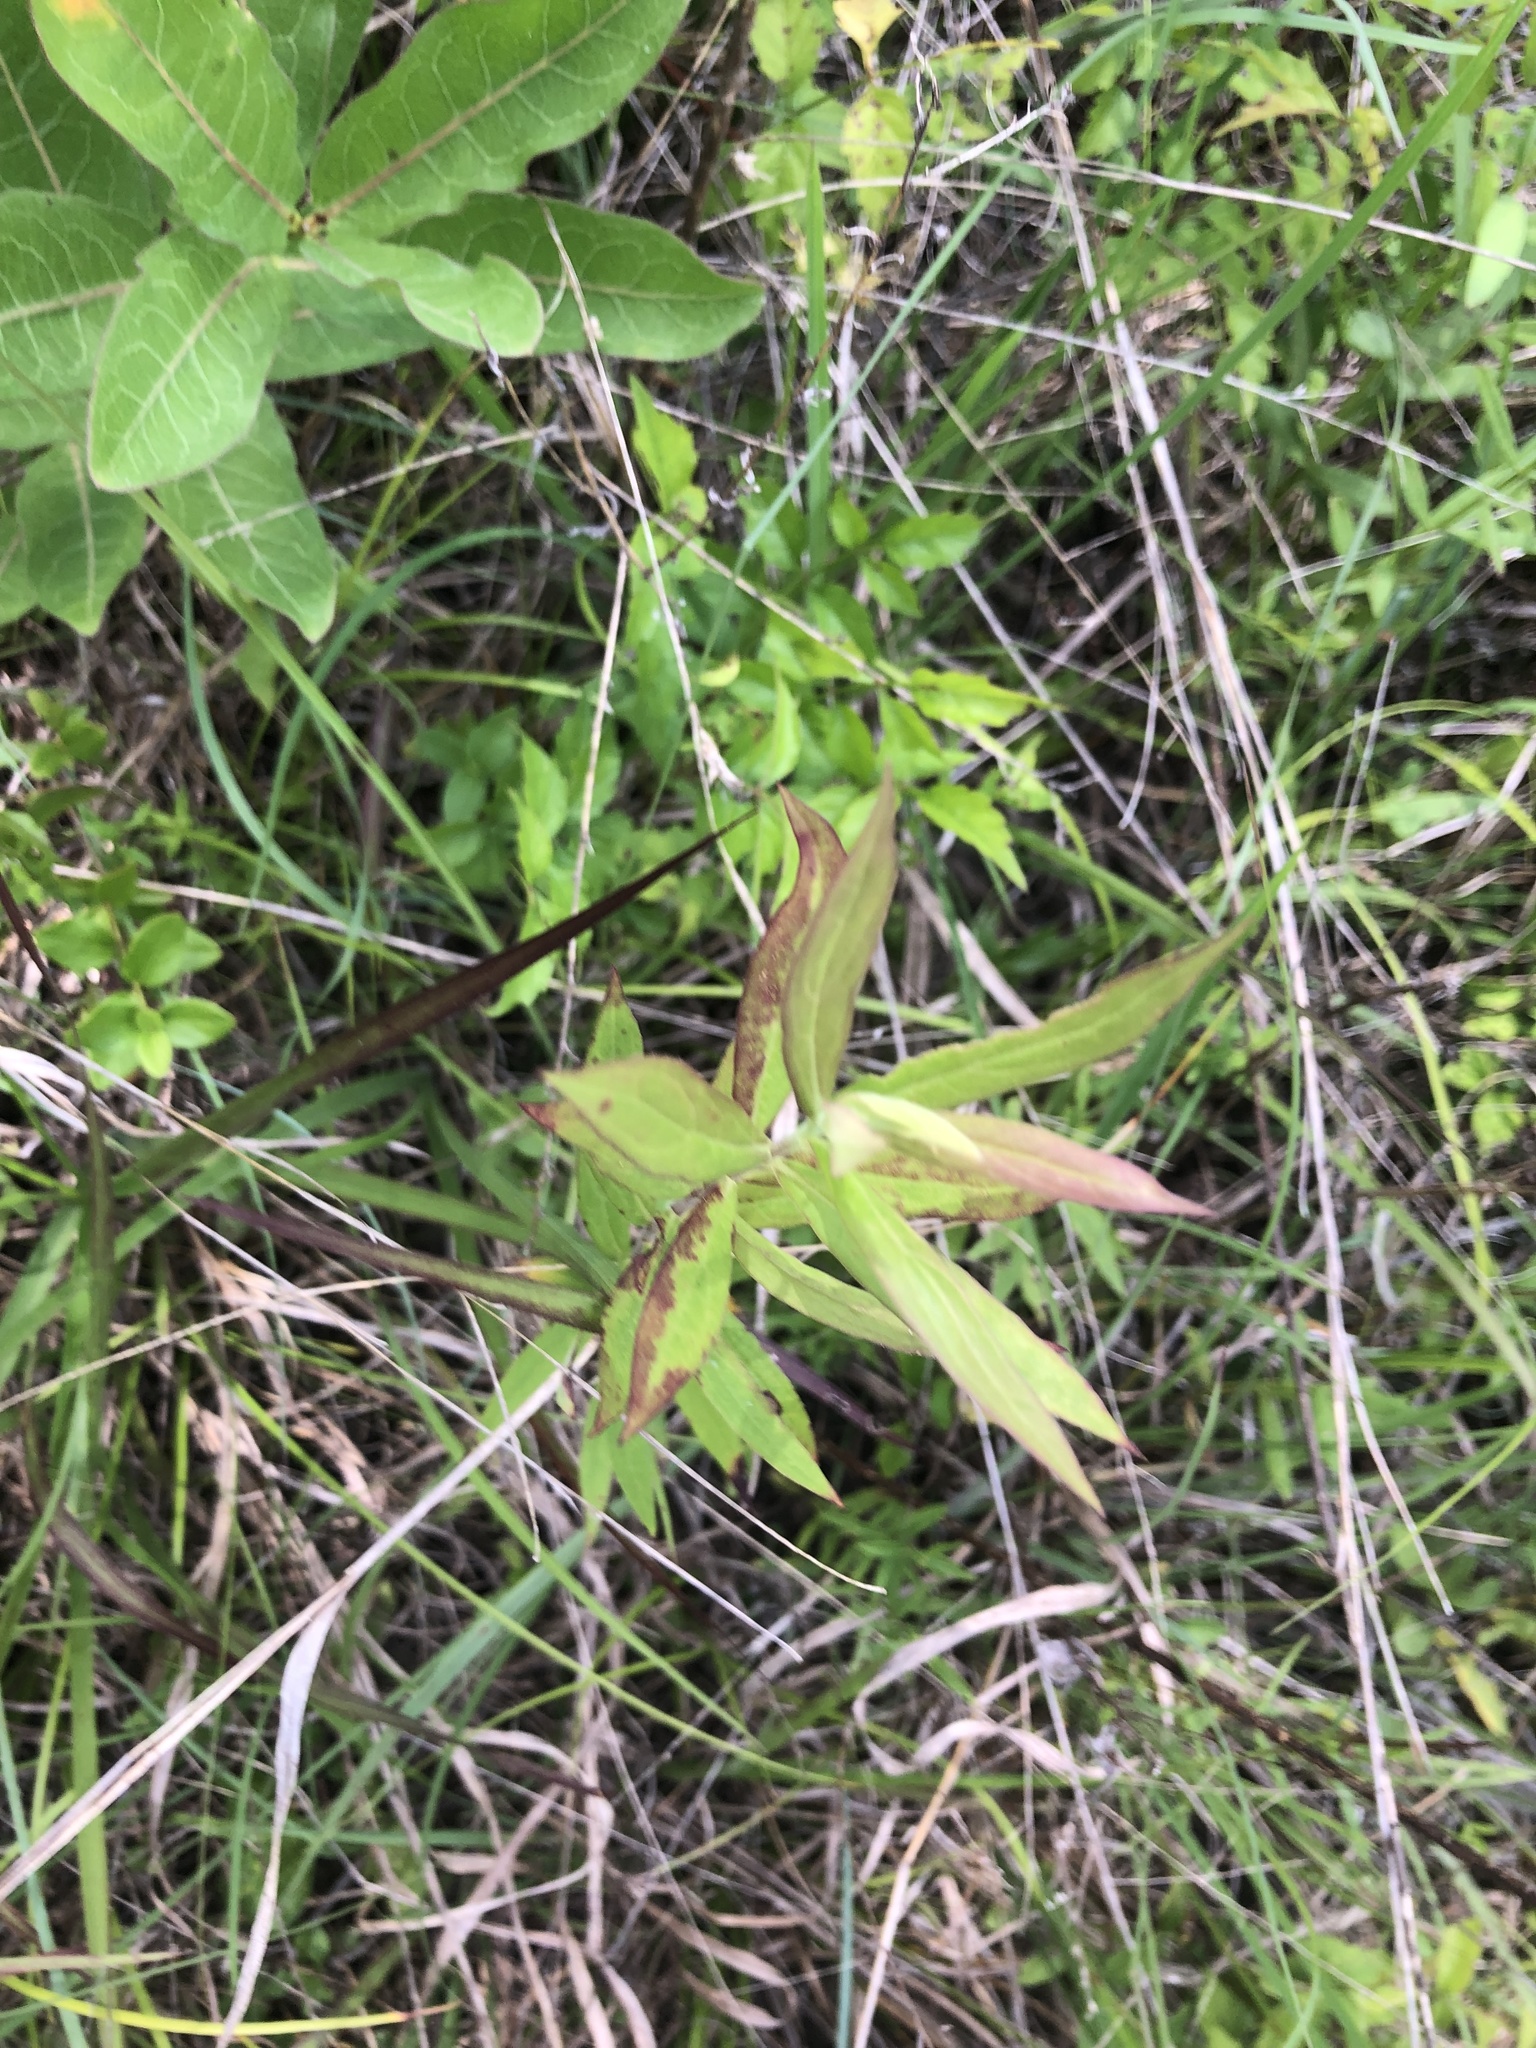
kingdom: Plantae
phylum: Tracheophyta
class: Magnoliopsida
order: Asterales
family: Asteraceae
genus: Solidago
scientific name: Solidago altissima
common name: Late goldenrod
